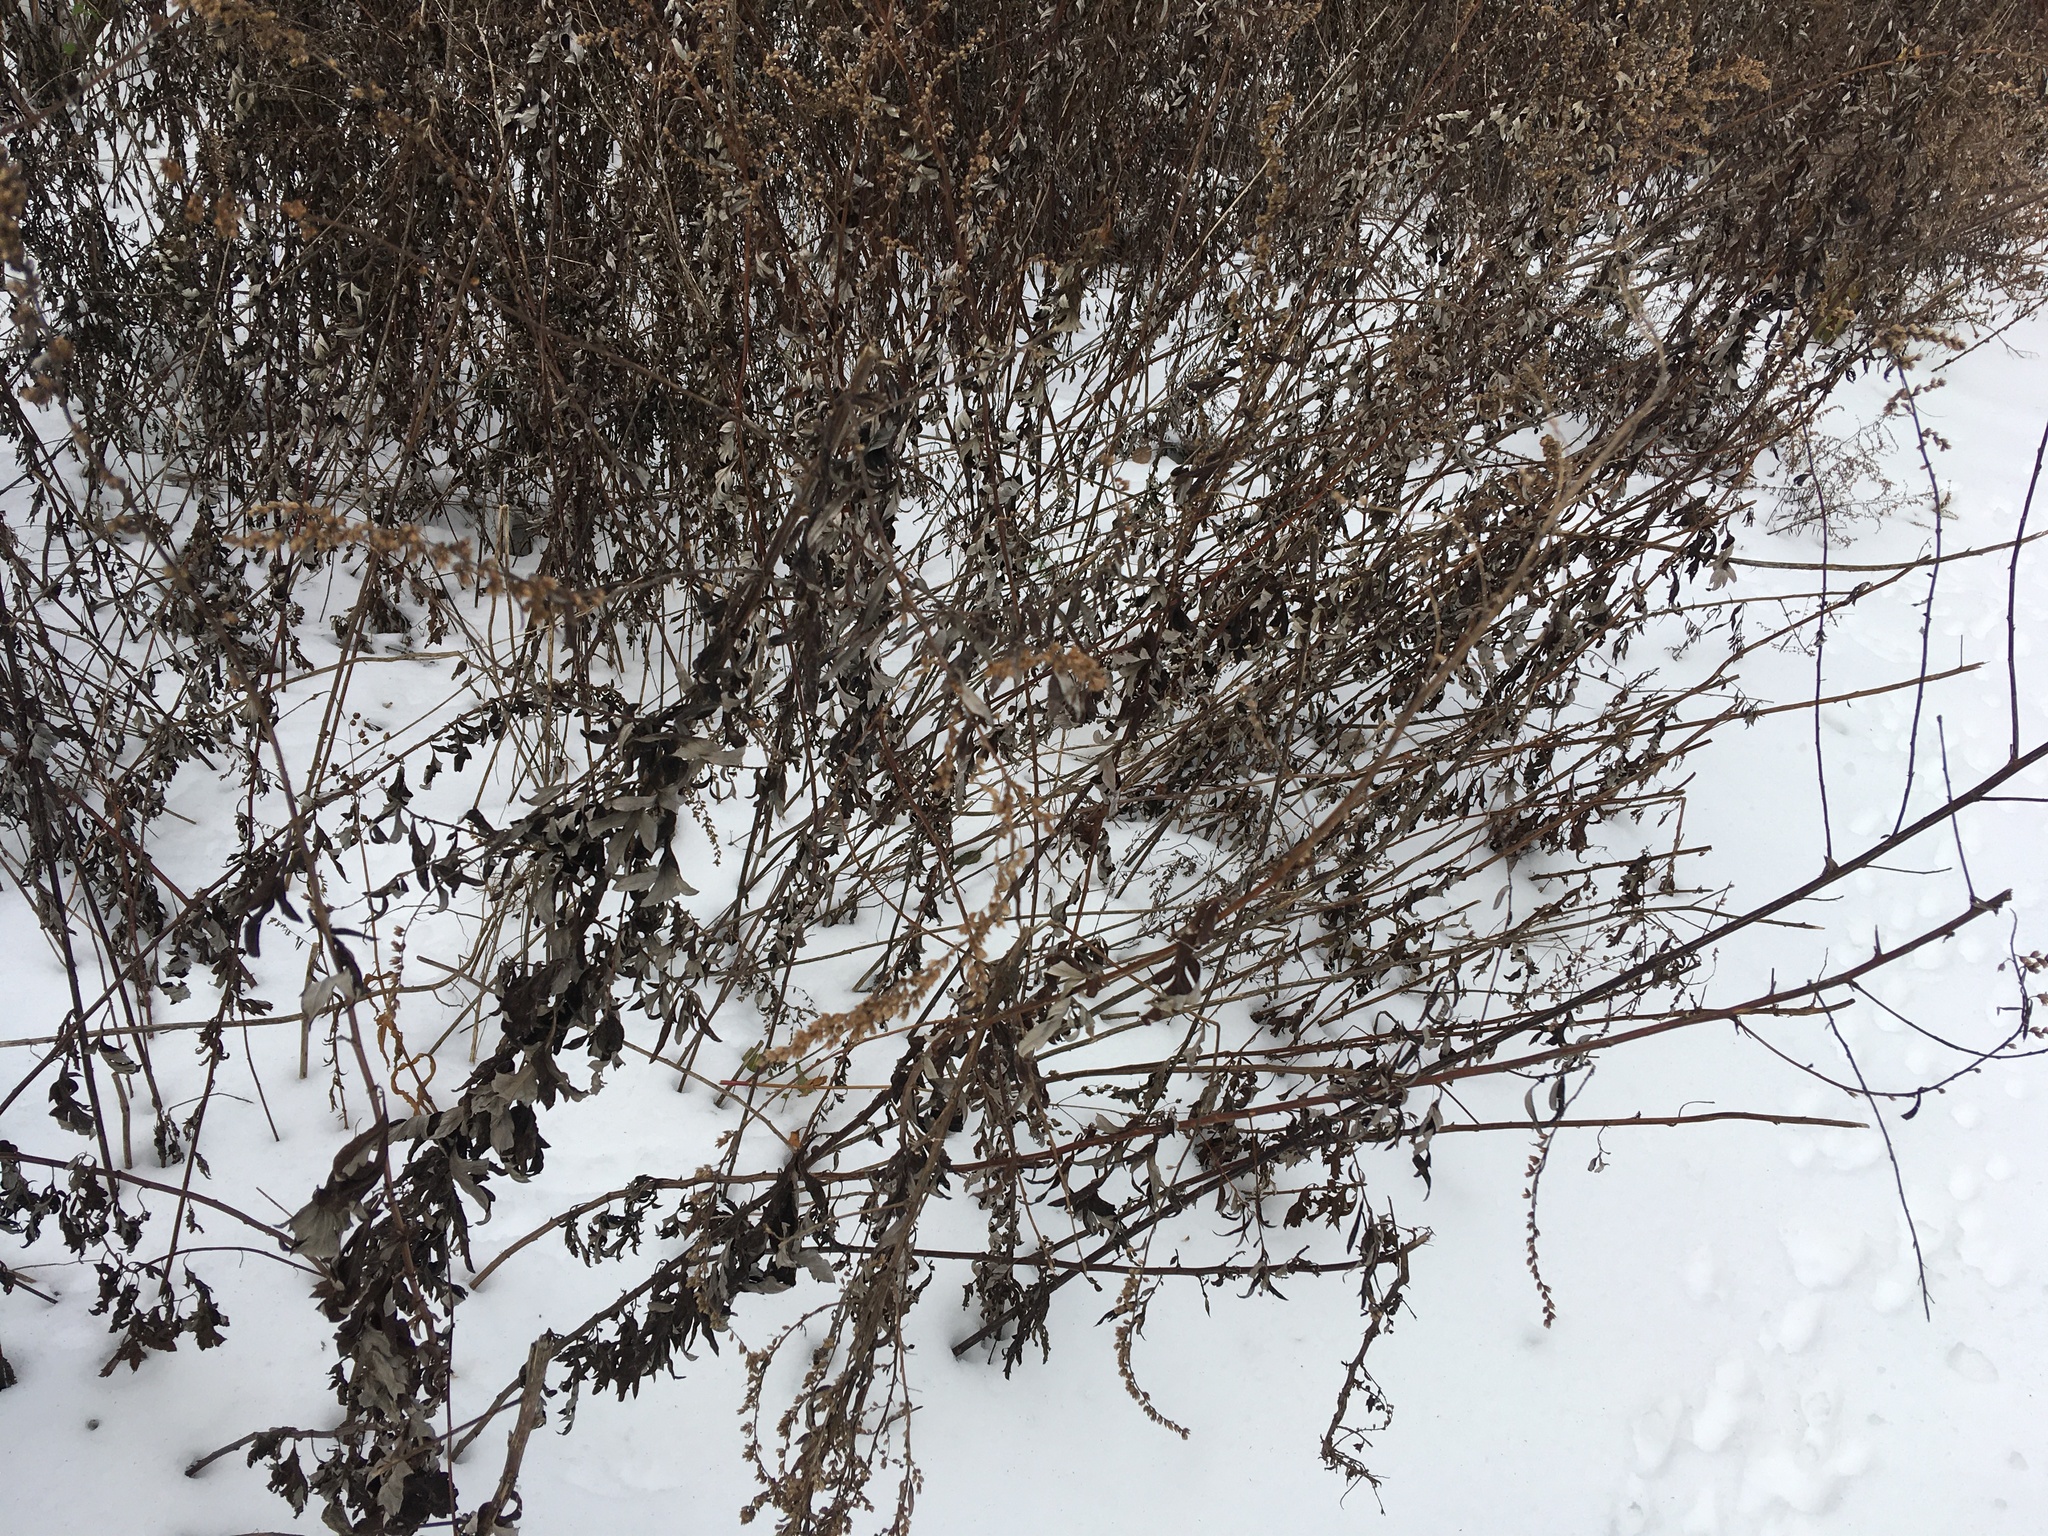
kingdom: Plantae
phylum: Tracheophyta
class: Magnoliopsida
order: Asterales
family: Asteraceae
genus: Artemisia
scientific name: Artemisia vulgaris
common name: Mugwort
